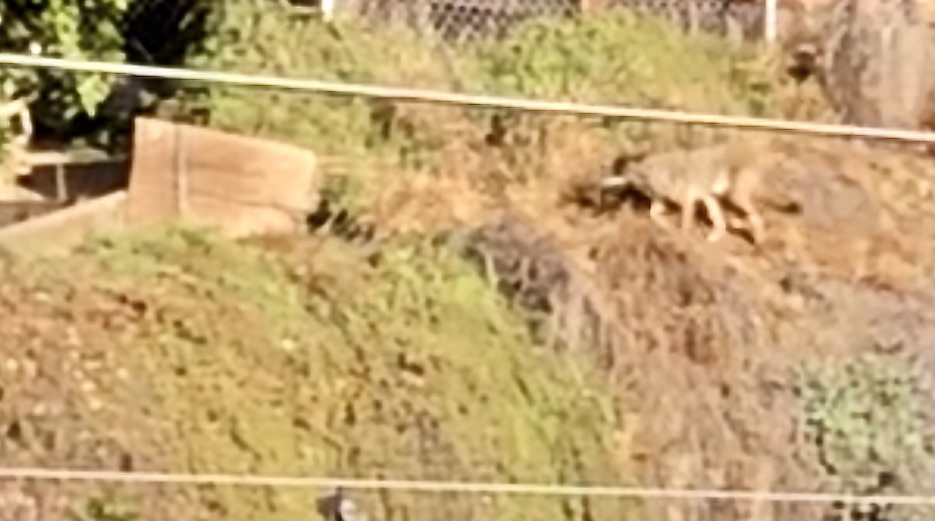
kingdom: Animalia
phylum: Chordata
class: Mammalia
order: Carnivora
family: Canidae
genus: Canis
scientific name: Canis latrans
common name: Coyote
